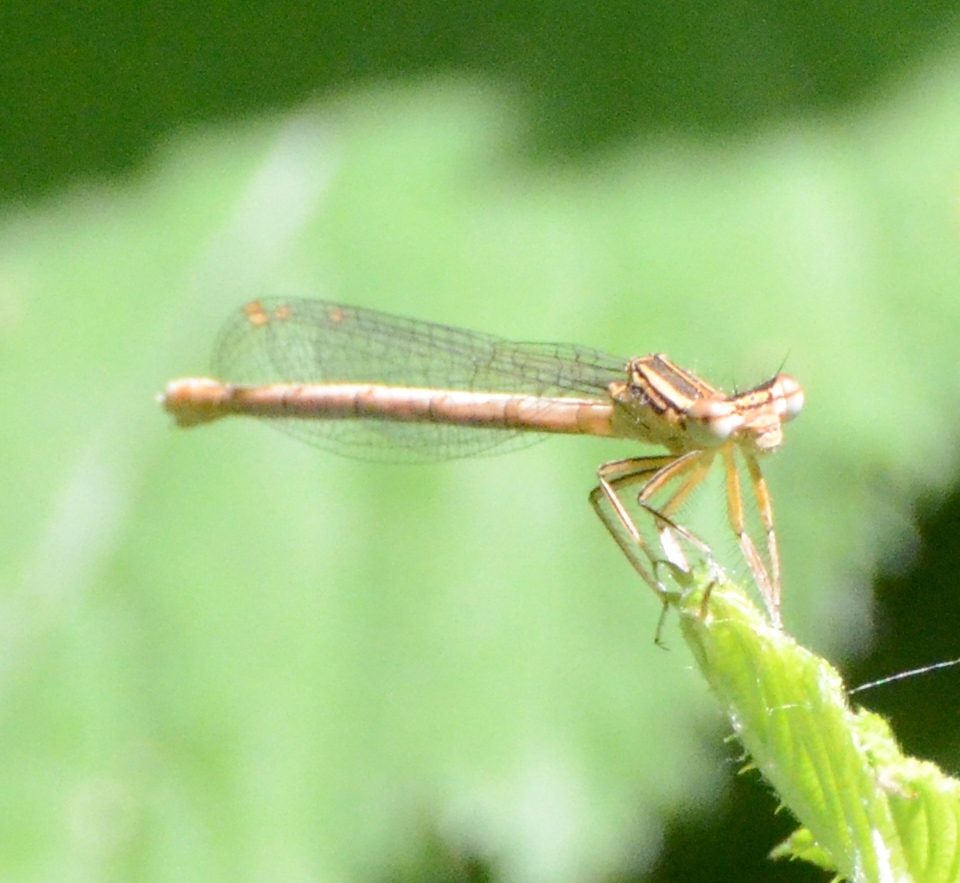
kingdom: Animalia
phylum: Arthropoda
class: Insecta
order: Odonata
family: Platycnemididae
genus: Platycnemis
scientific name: Platycnemis pennipes
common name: White-legged damselfly
